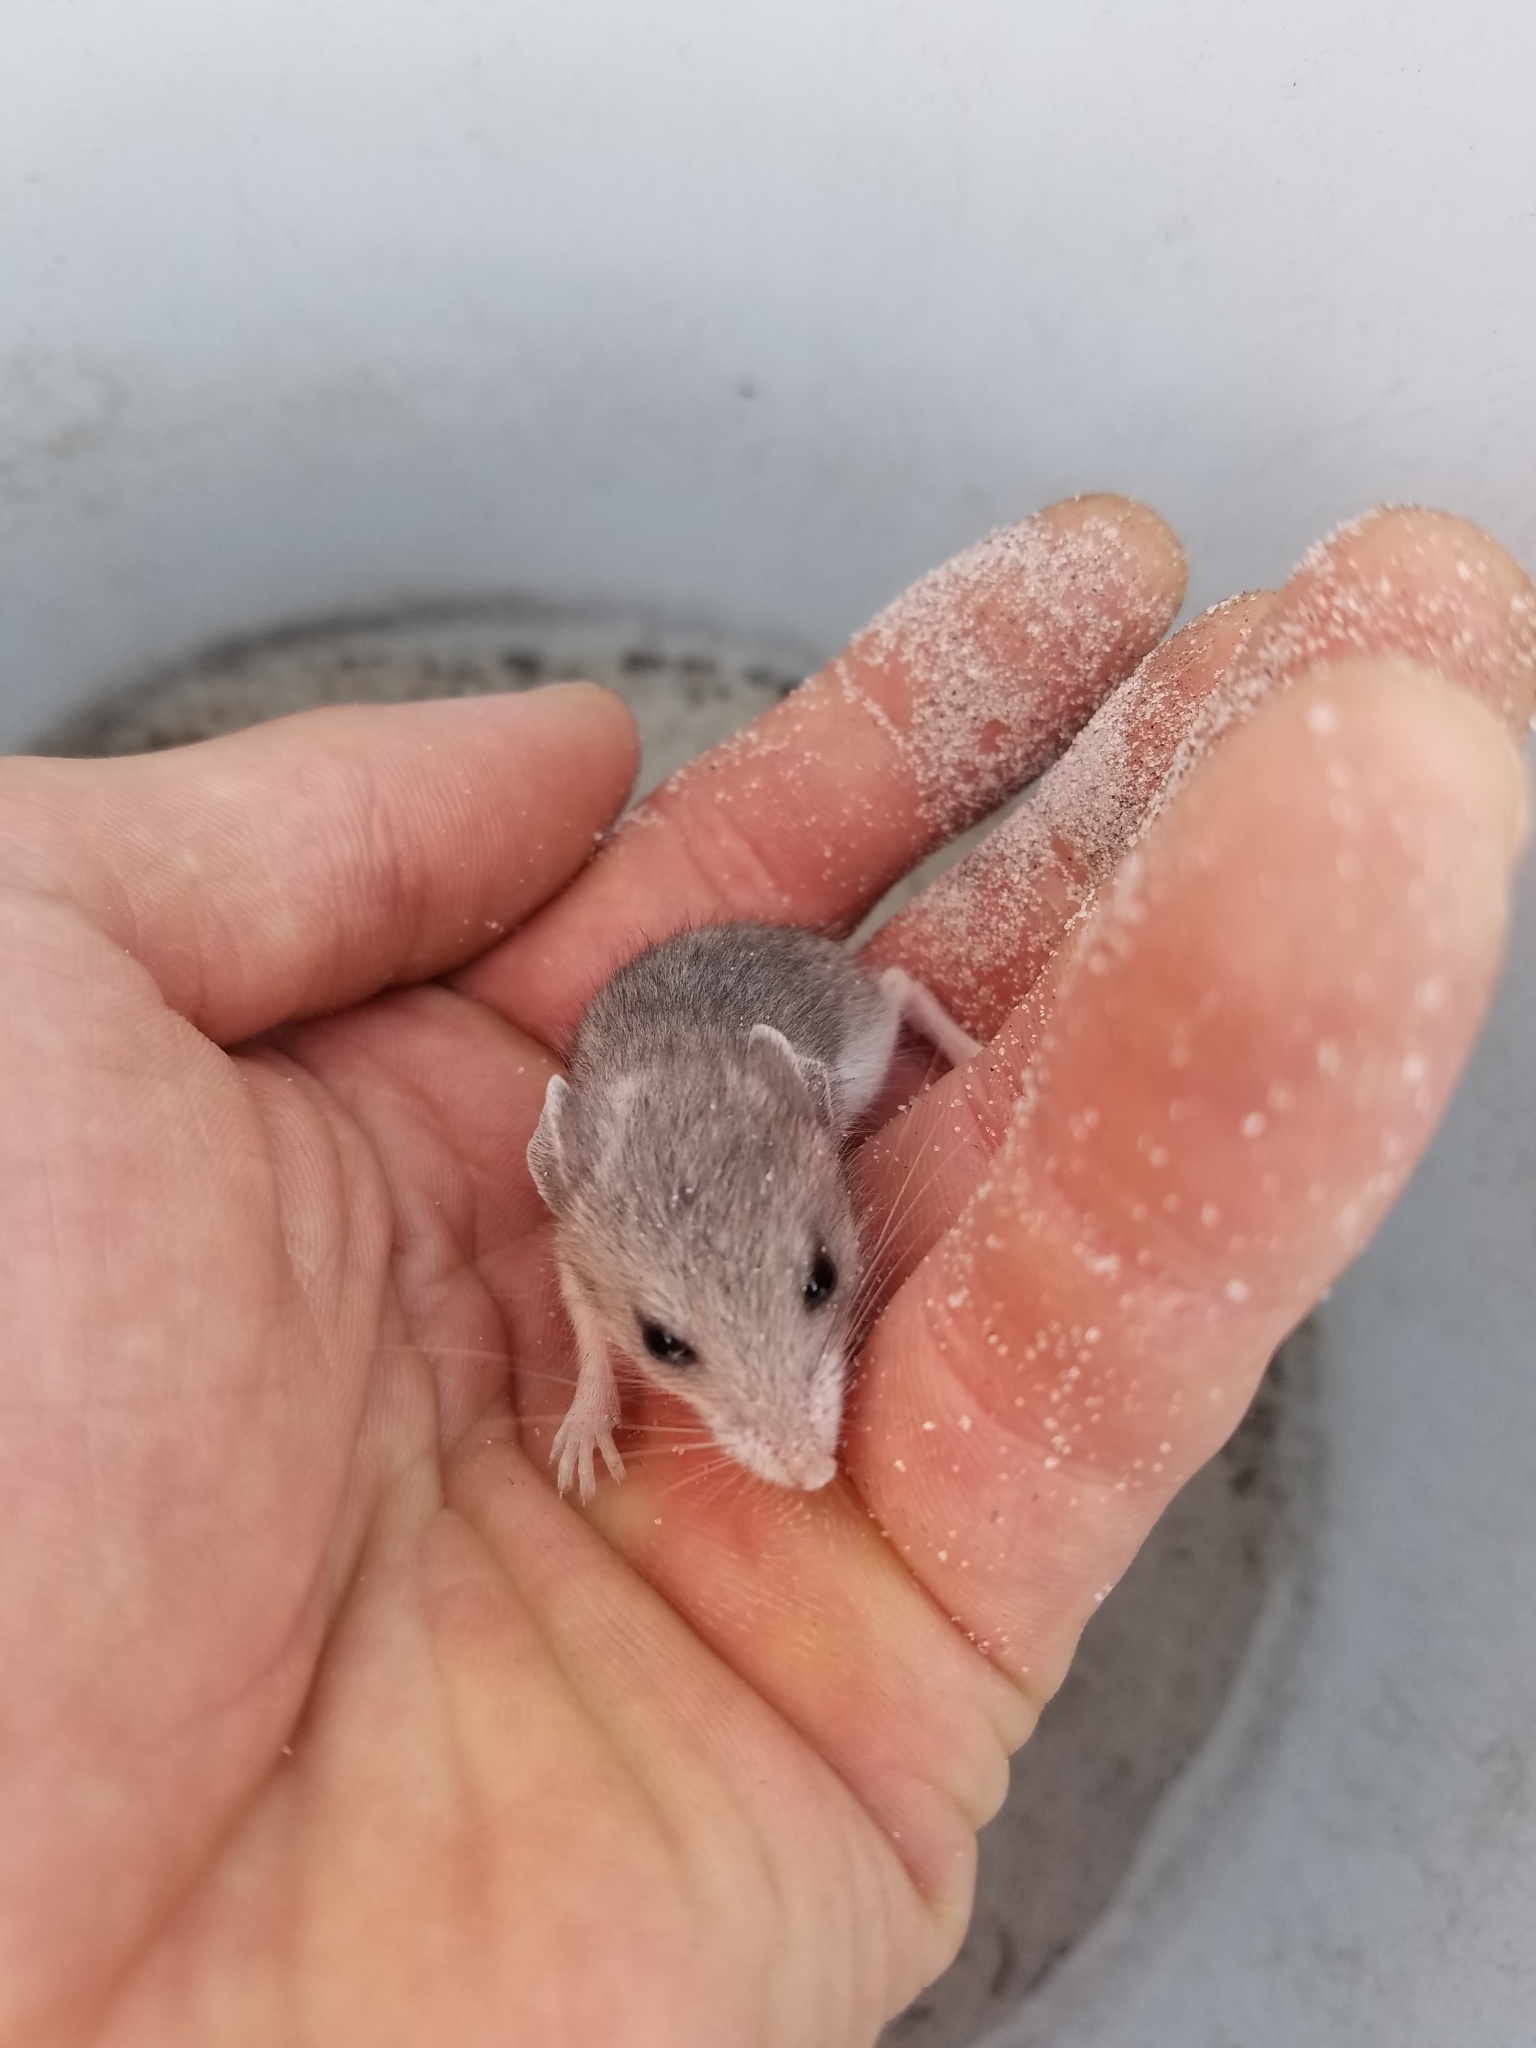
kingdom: Animalia
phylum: Chordata
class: Mammalia
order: Rodentia
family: Cricetidae
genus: Podomys
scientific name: Podomys floridanus
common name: Florida mouse
